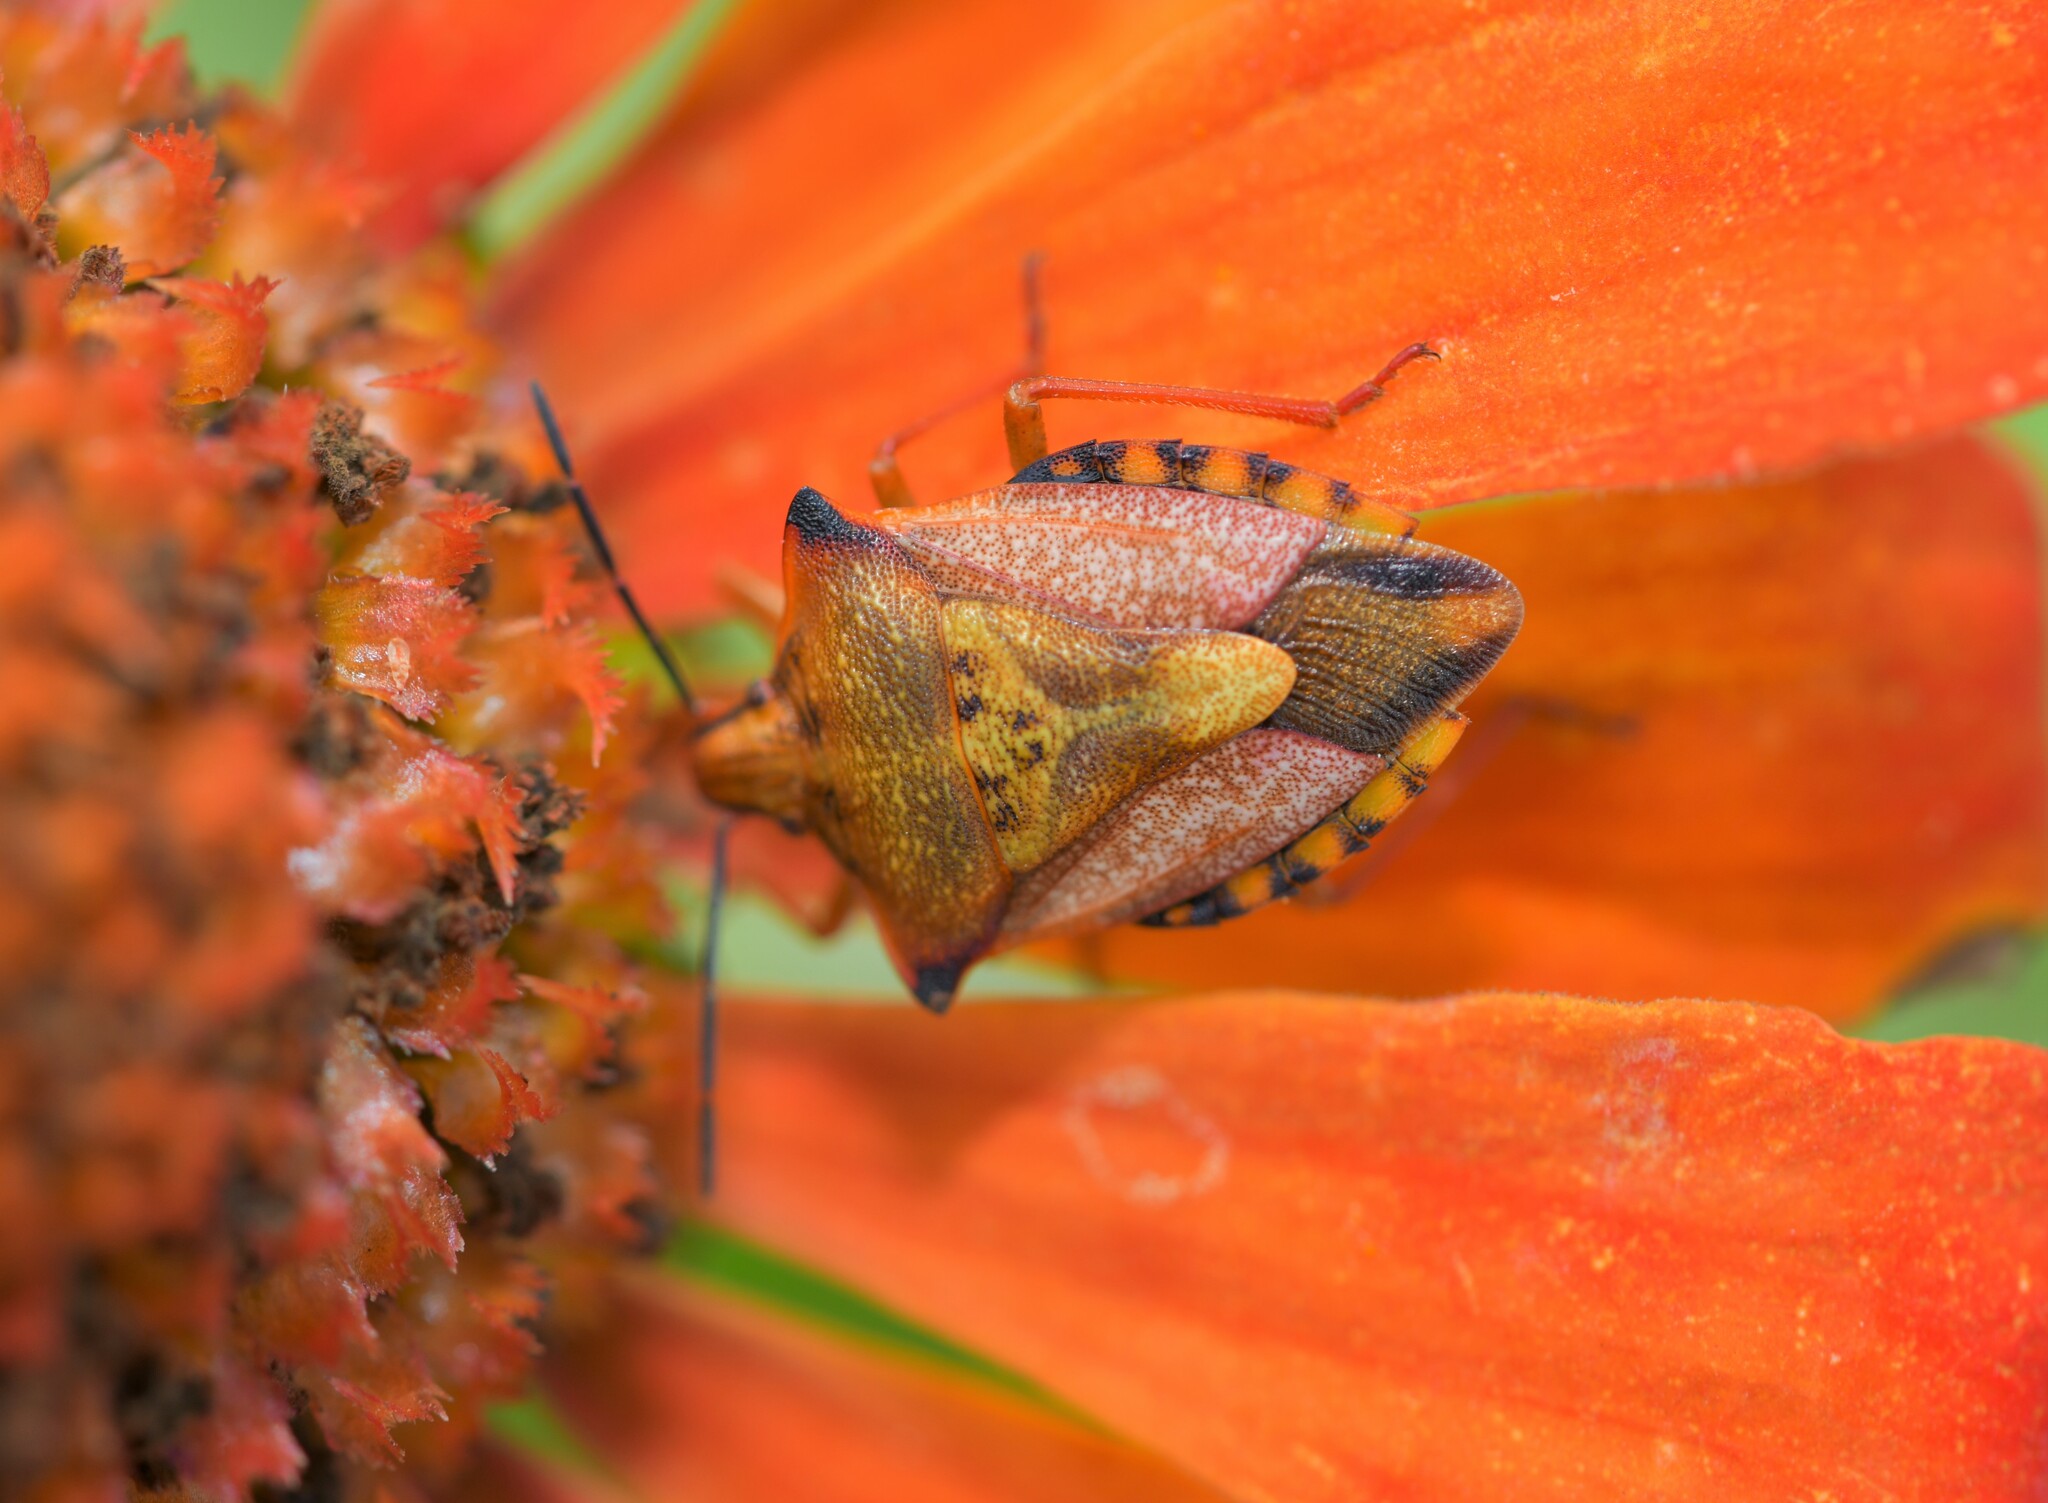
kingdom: Animalia
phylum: Arthropoda
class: Insecta
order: Hemiptera
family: Pentatomidae
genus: Carpocoris
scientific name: Carpocoris mediterraneus
